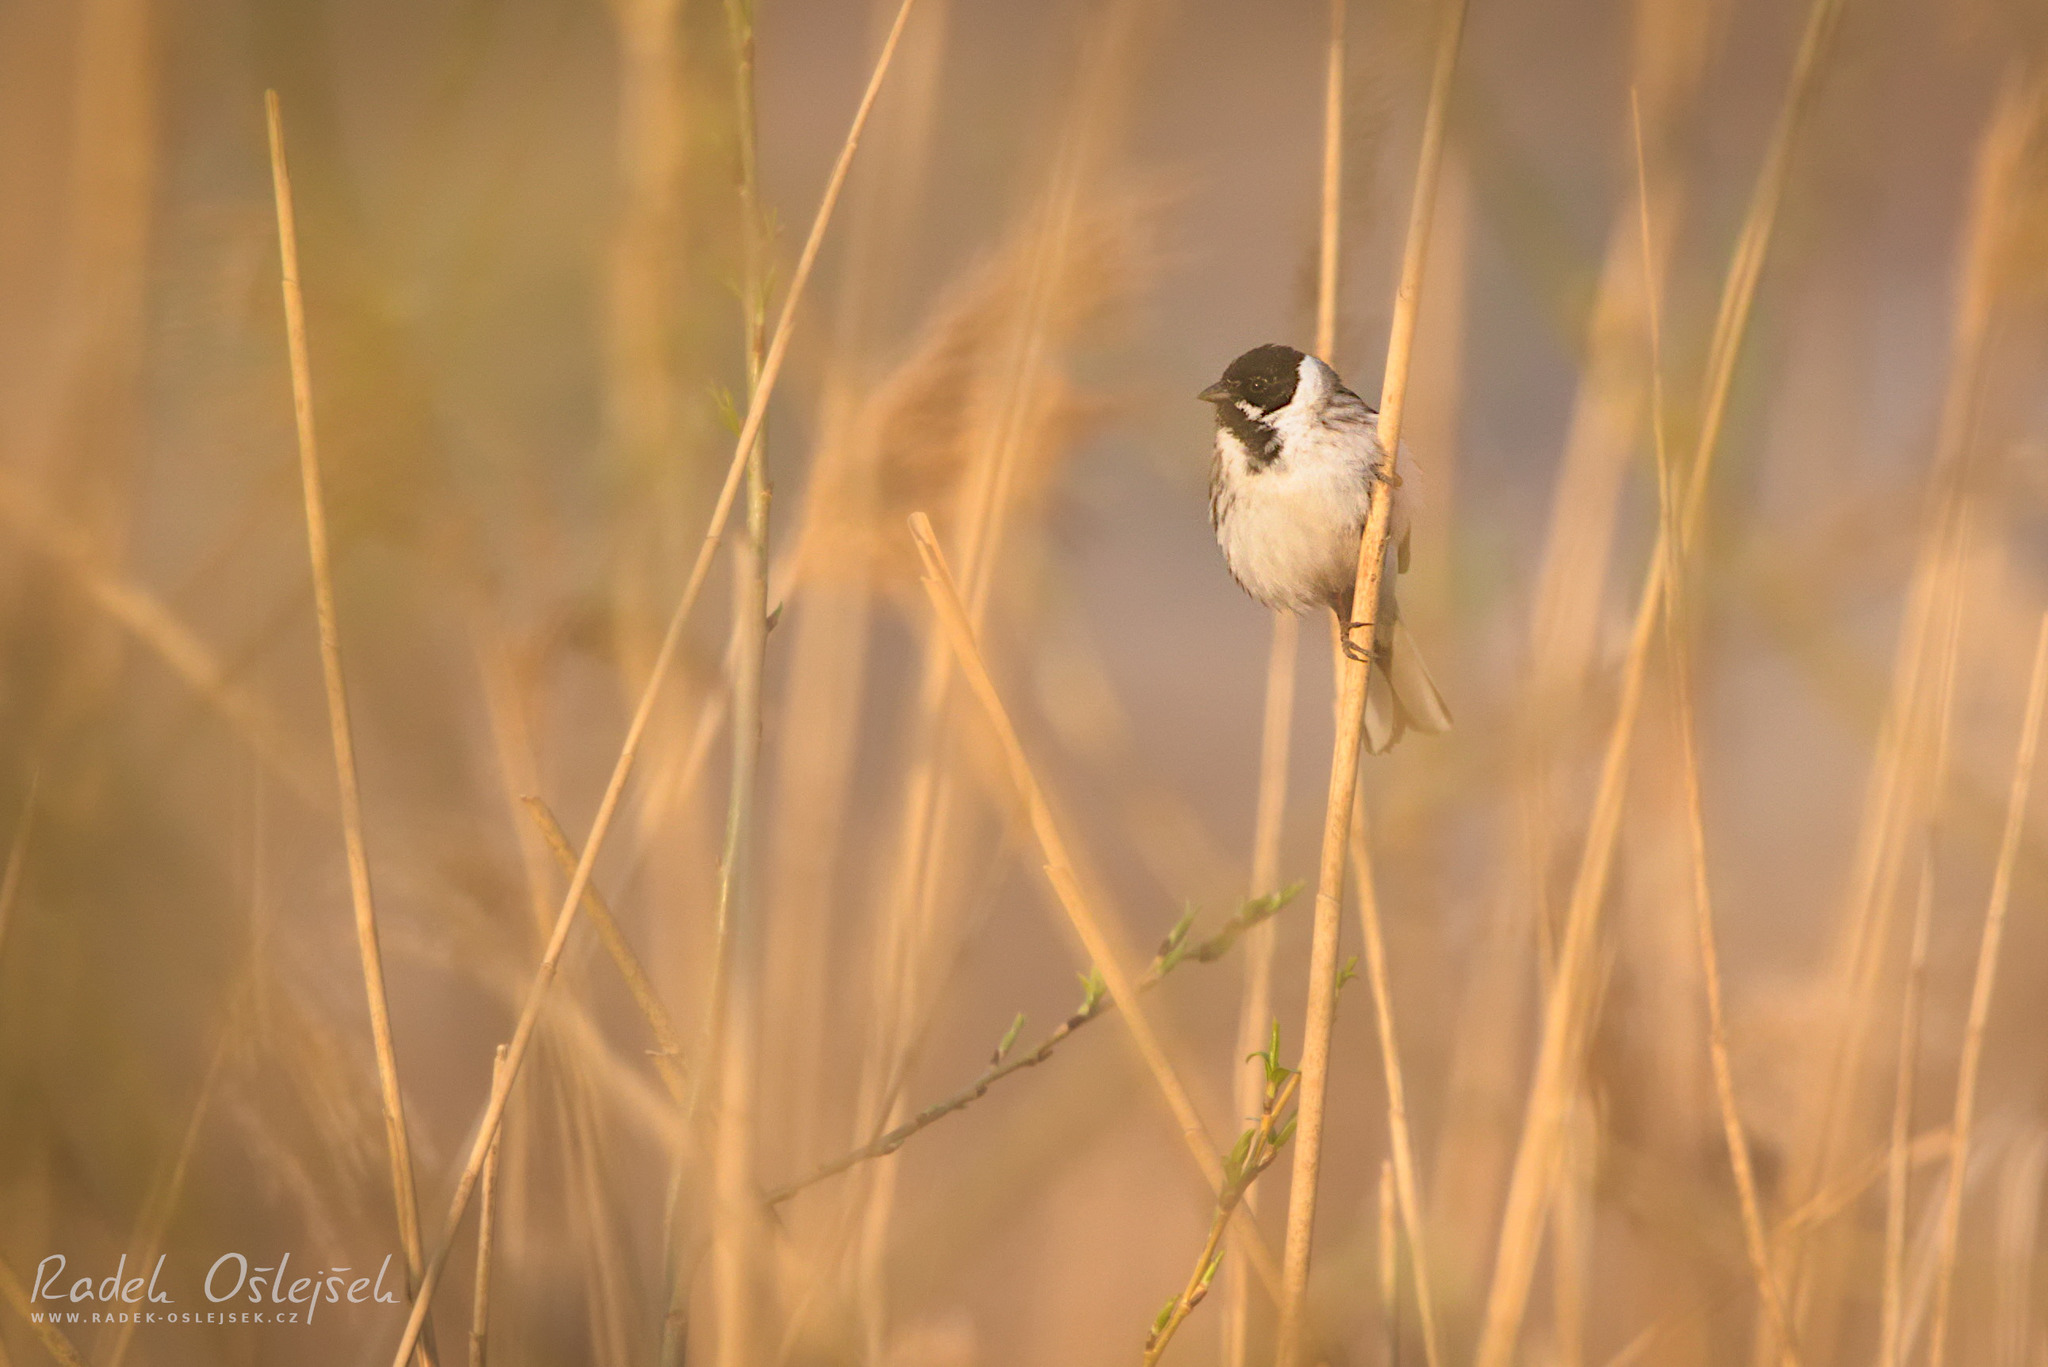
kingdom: Animalia
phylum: Chordata
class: Aves
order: Passeriformes
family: Emberizidae
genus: Emberiza
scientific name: Emberiza schoeniclus
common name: Reed bunting
